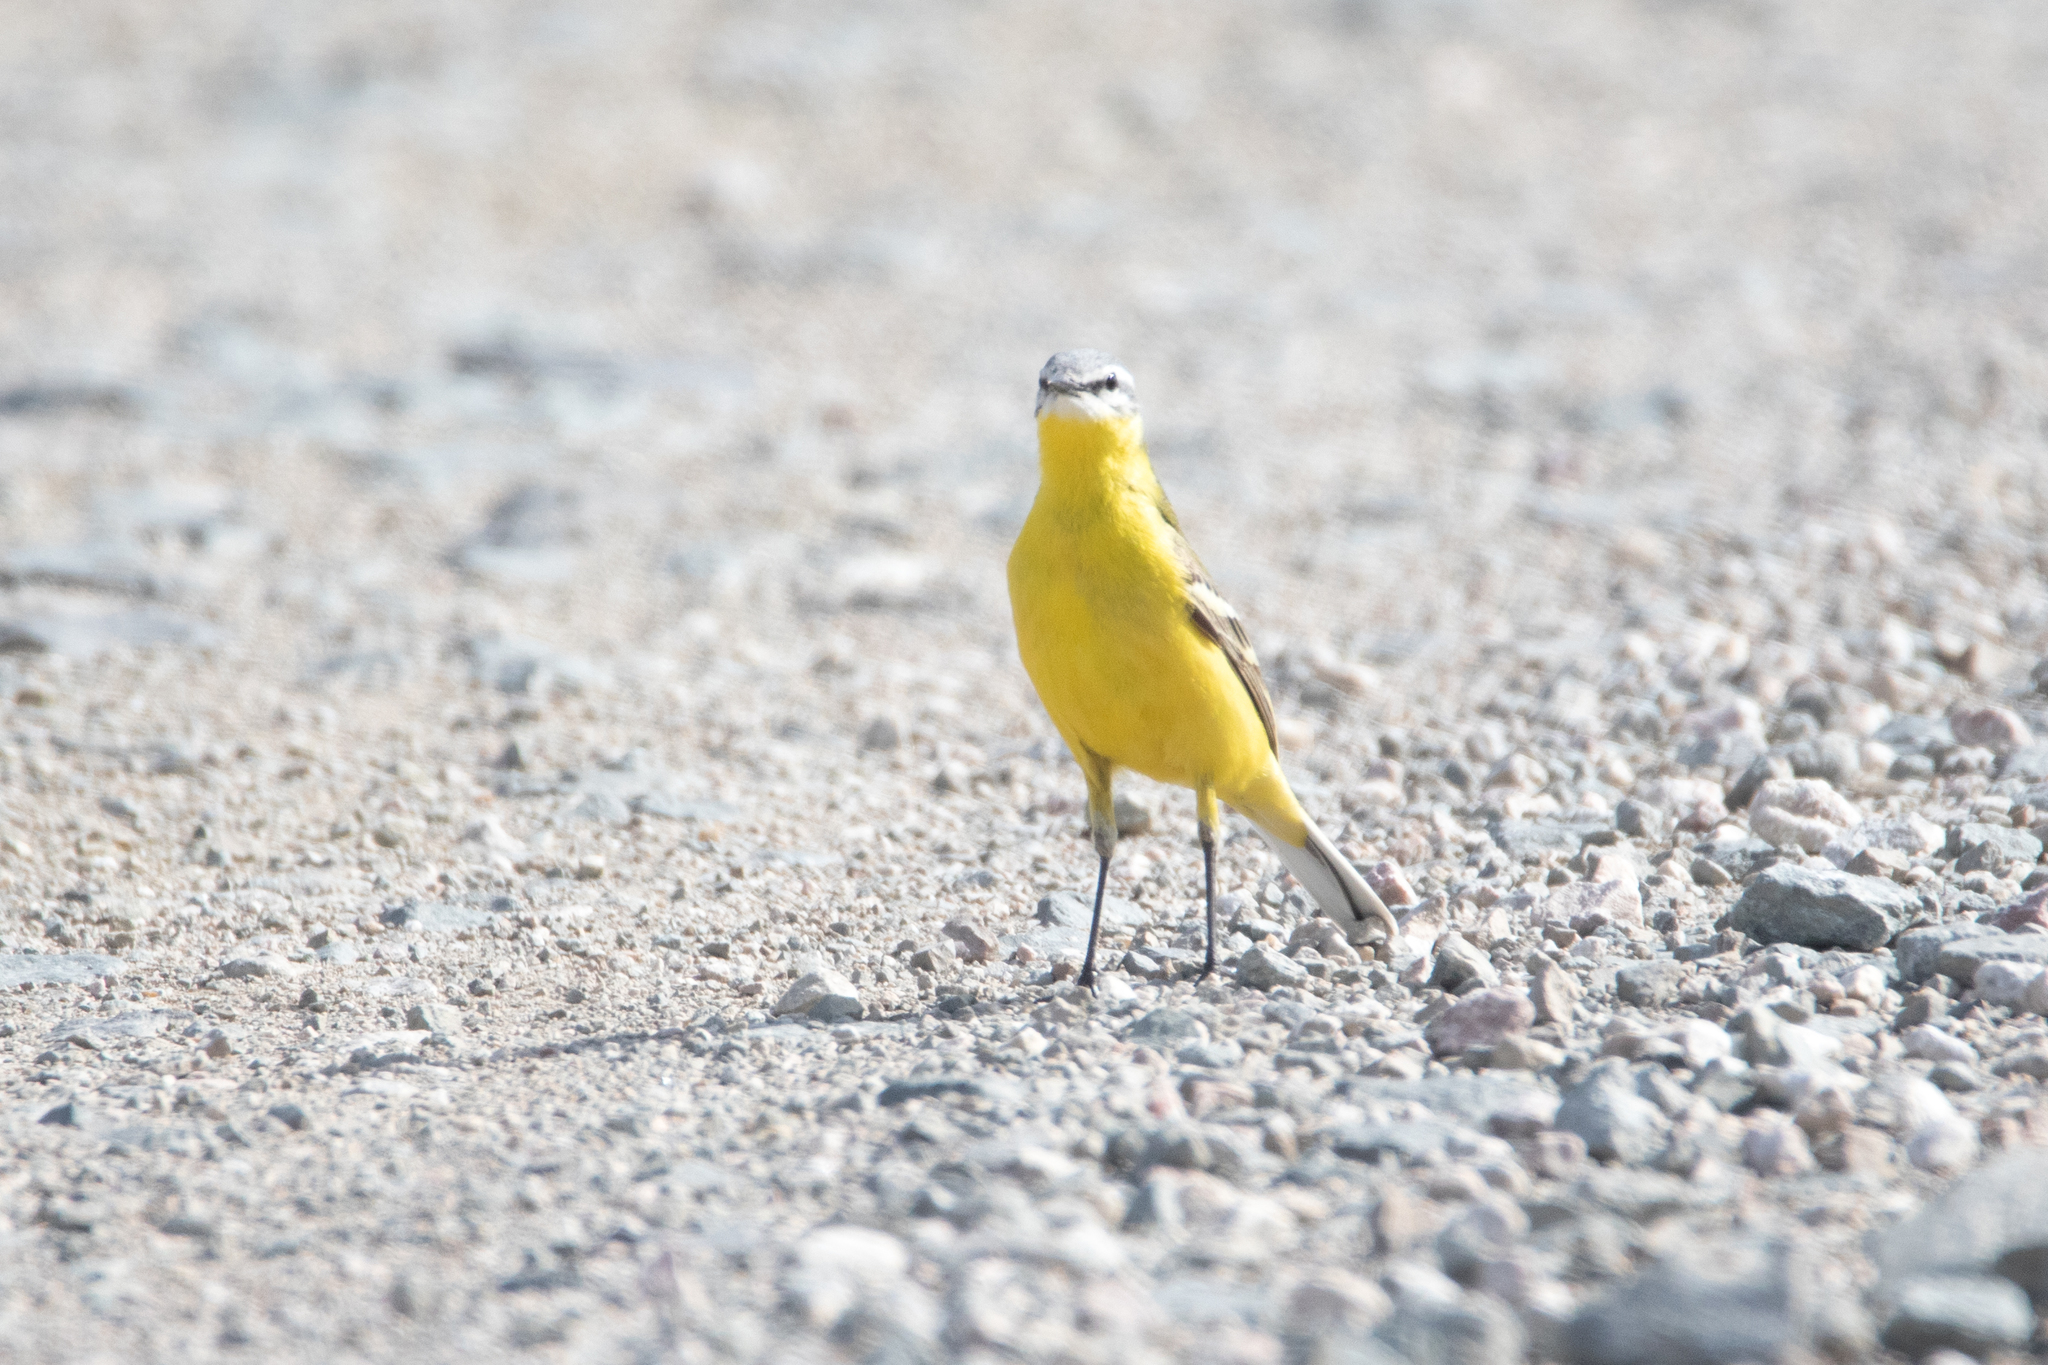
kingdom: Animalia
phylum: Chordata
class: Aves
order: Passeriformes
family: Motacillidae
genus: Motacilla
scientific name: Motacilla flava
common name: Western yellow wagtail
